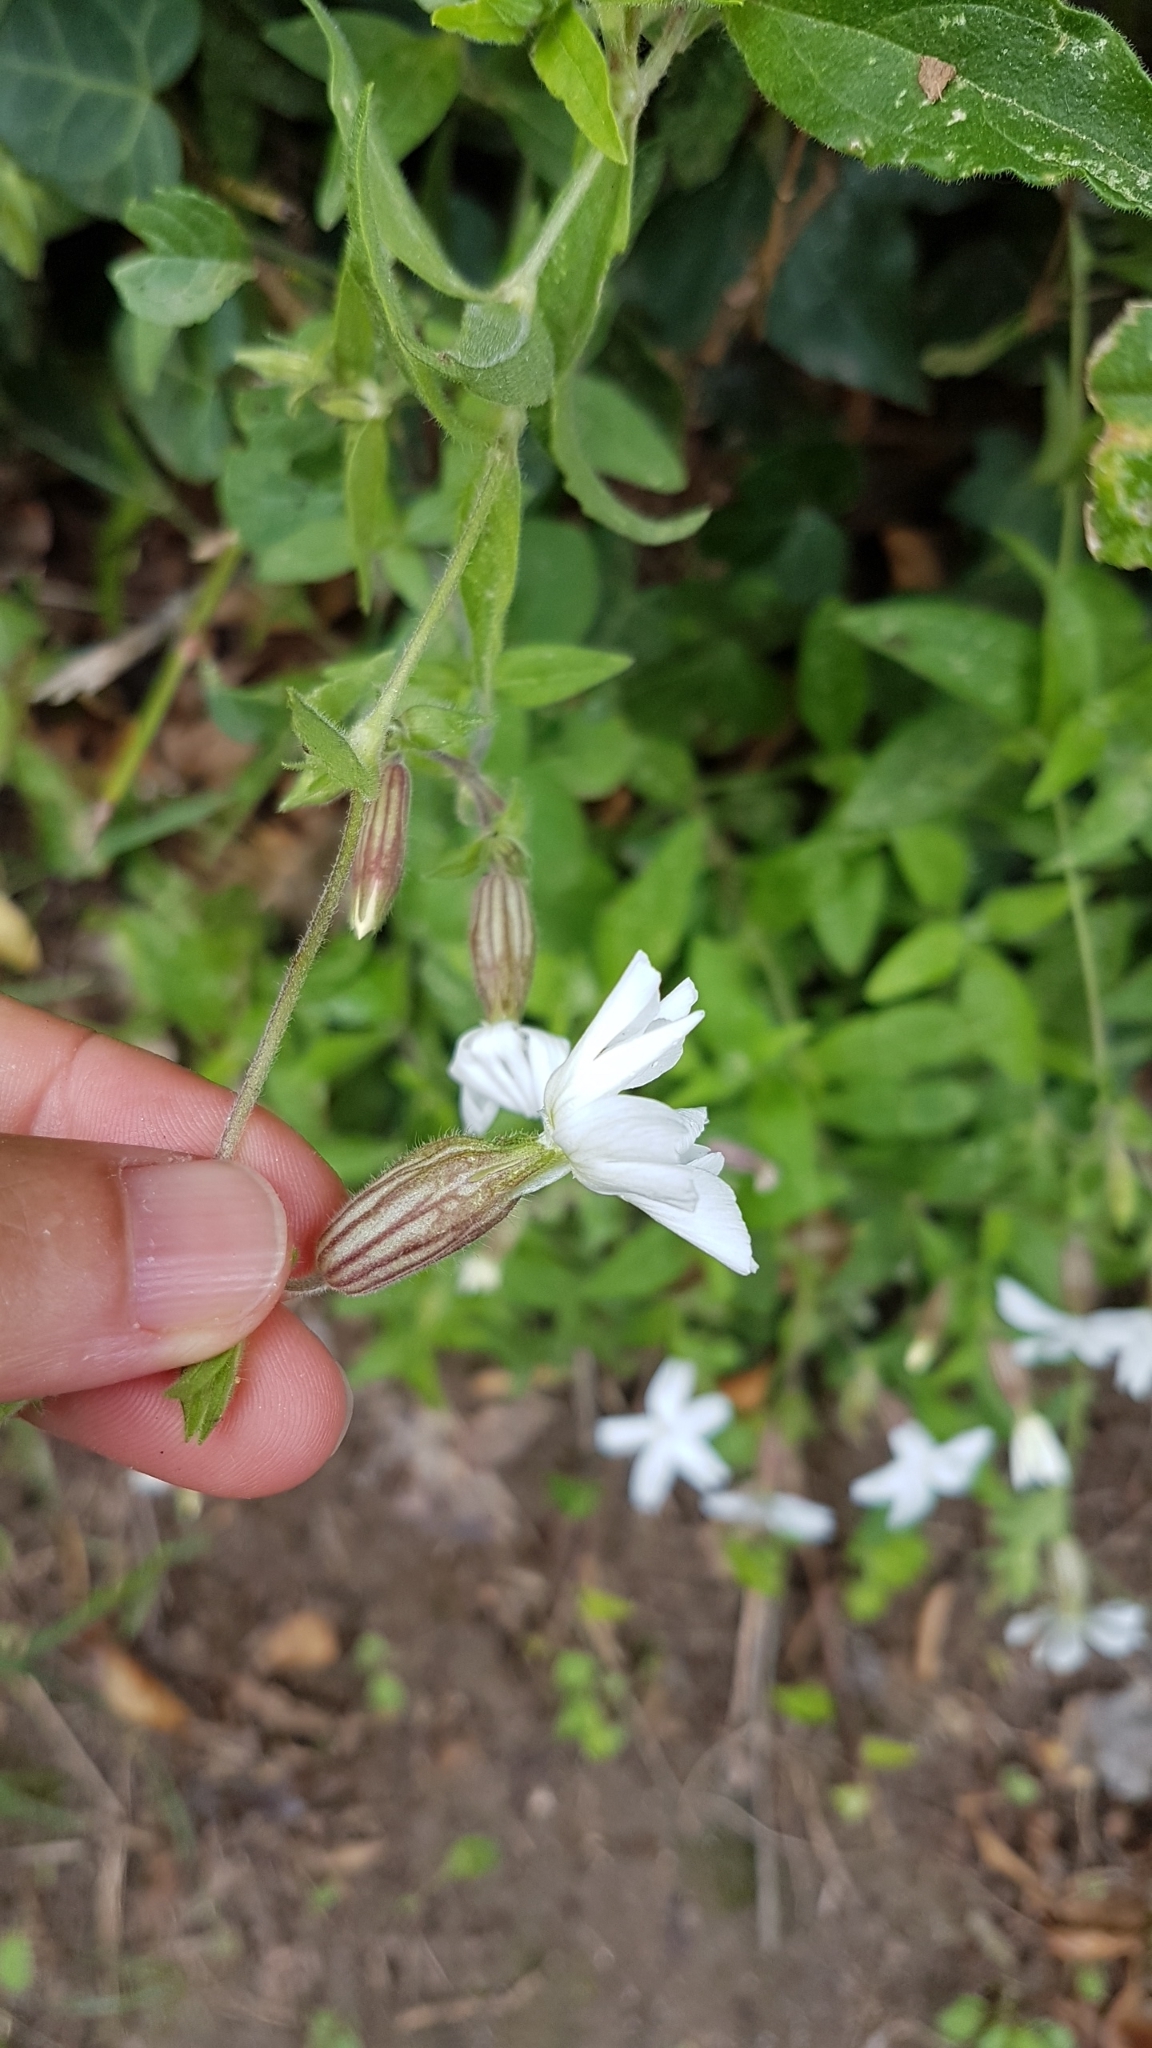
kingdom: Plantae
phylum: Tracheophyta
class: Magnoliopsida
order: Caryophyllales
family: Caryophyllaceae
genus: Silene
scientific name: Silene latifolia
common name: White campion
